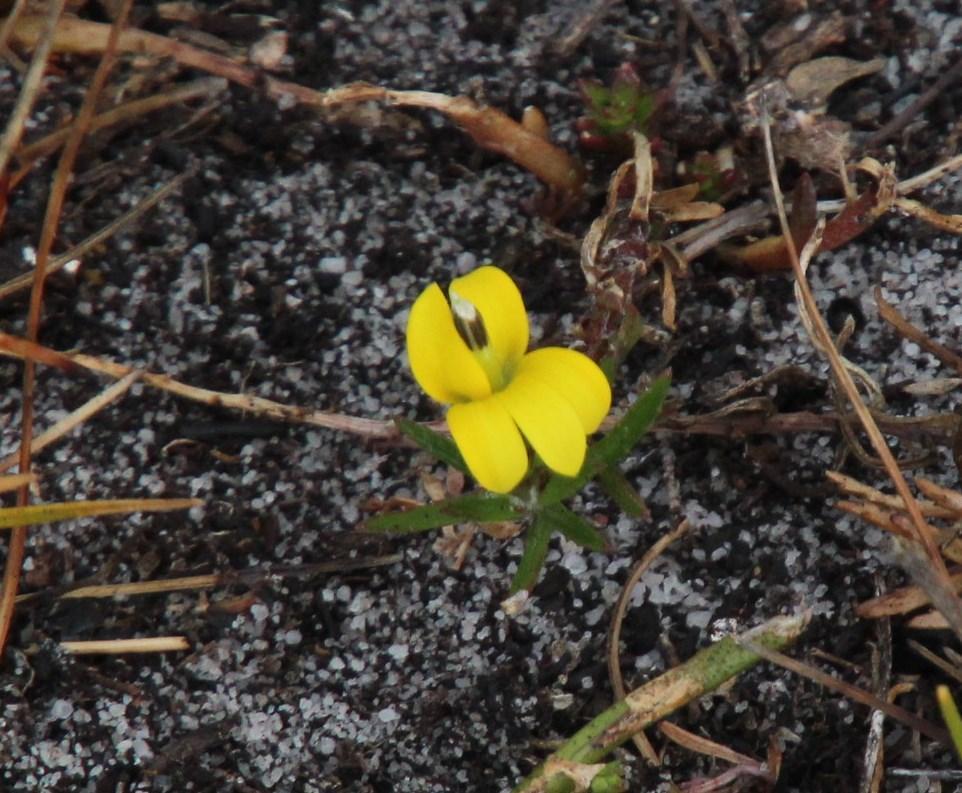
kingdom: Plantae
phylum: Tracheophyta
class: Magnoliopsida
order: Asterales
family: Campanulaceae
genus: Monopsis
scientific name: Monopsis lutea
